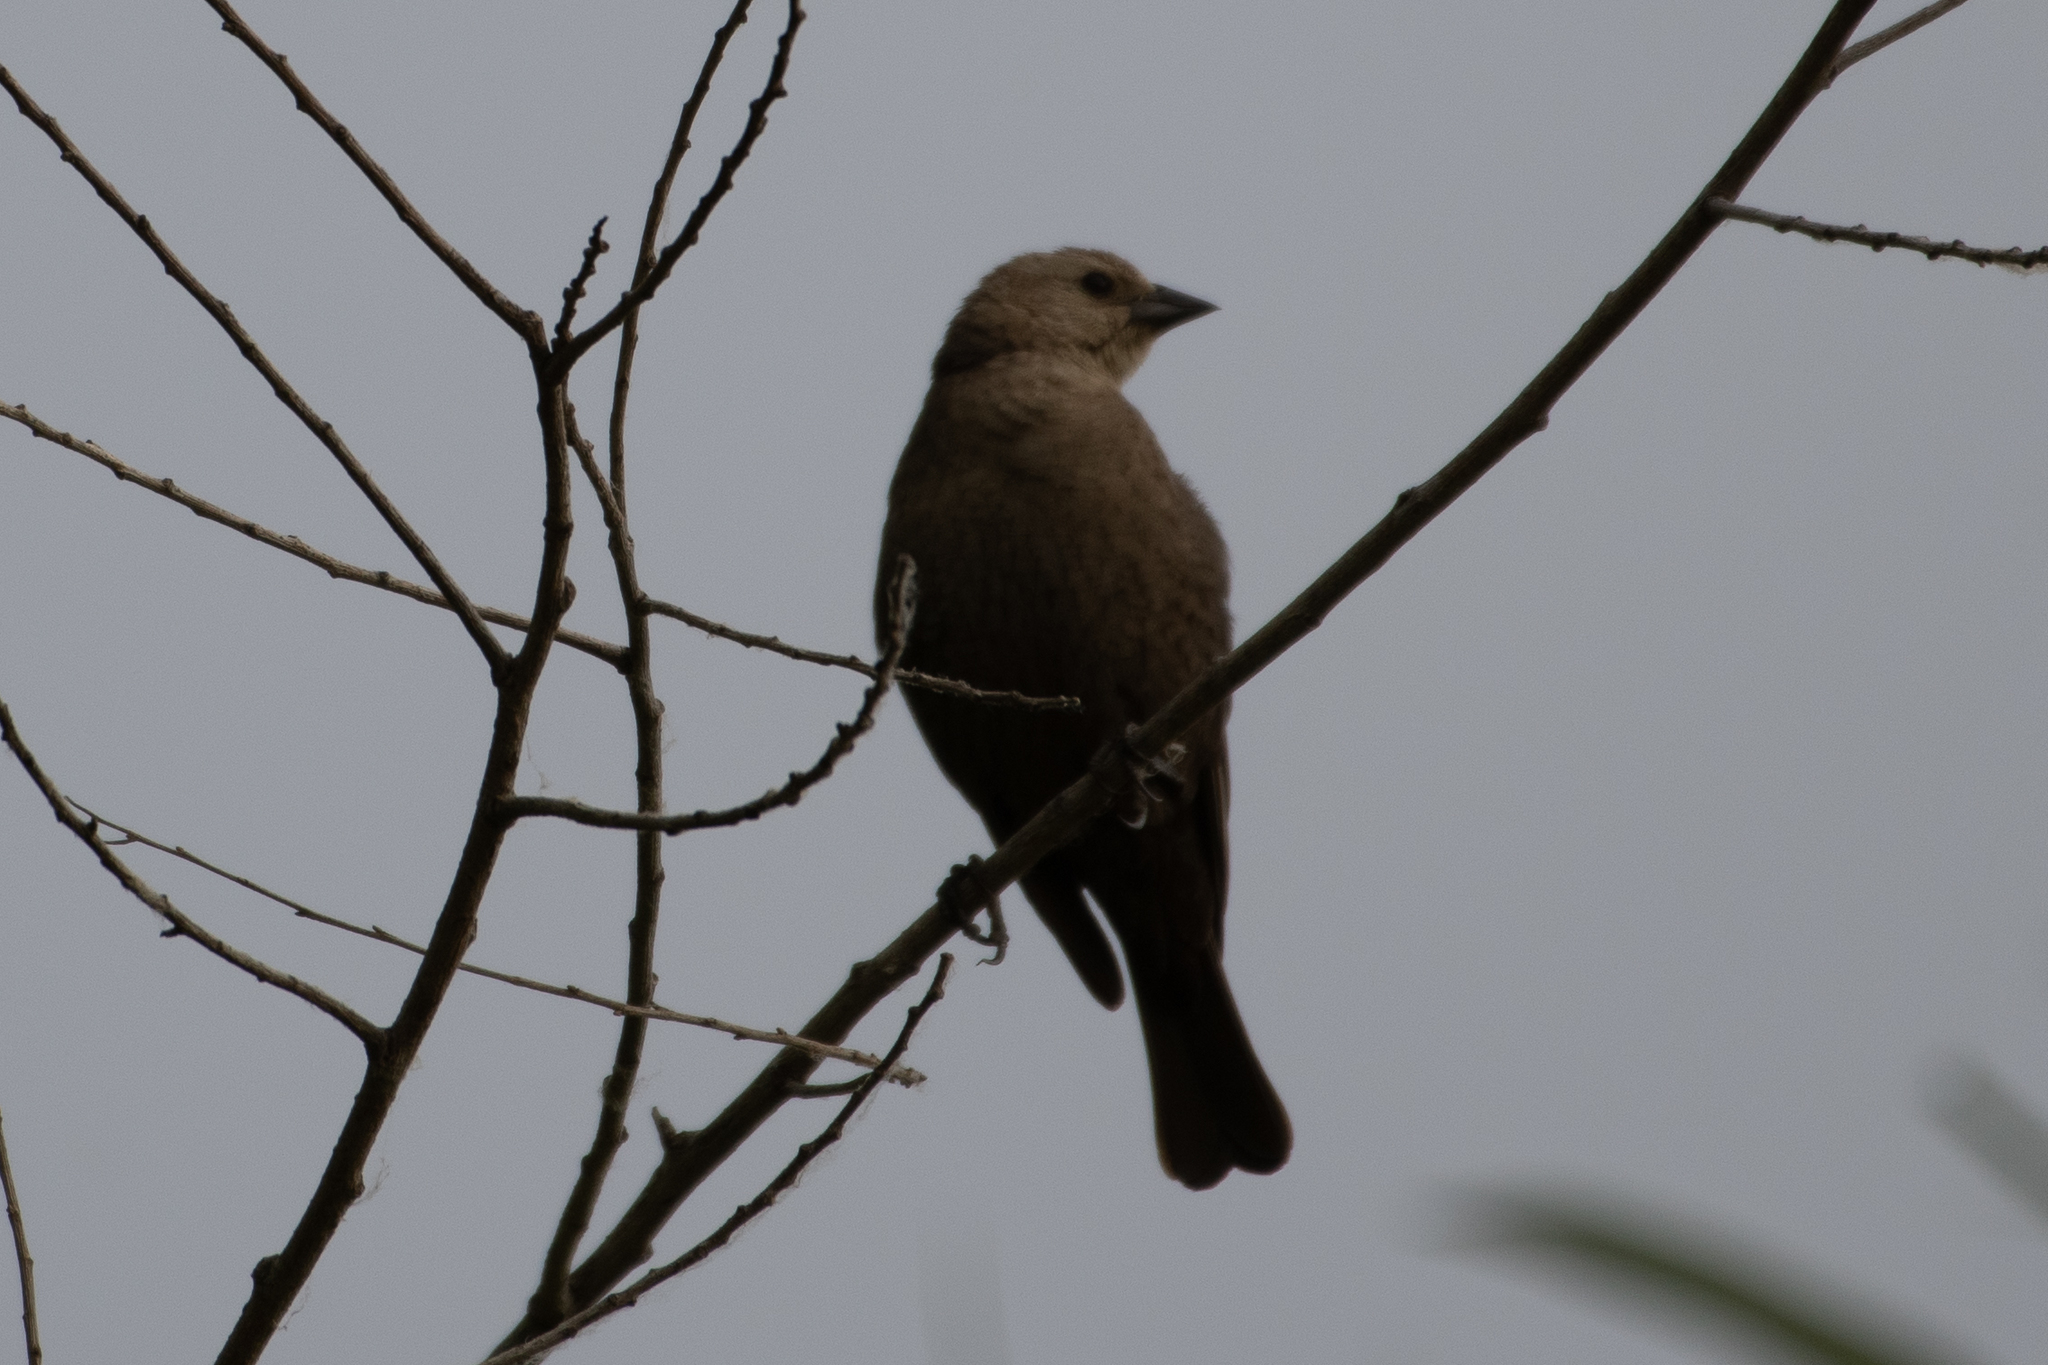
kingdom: Animalia
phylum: Chordata
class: Aves
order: Passeriformes
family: Icteridae
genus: Molothrus
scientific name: Molothrus ater
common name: Brown-headed cowbird
